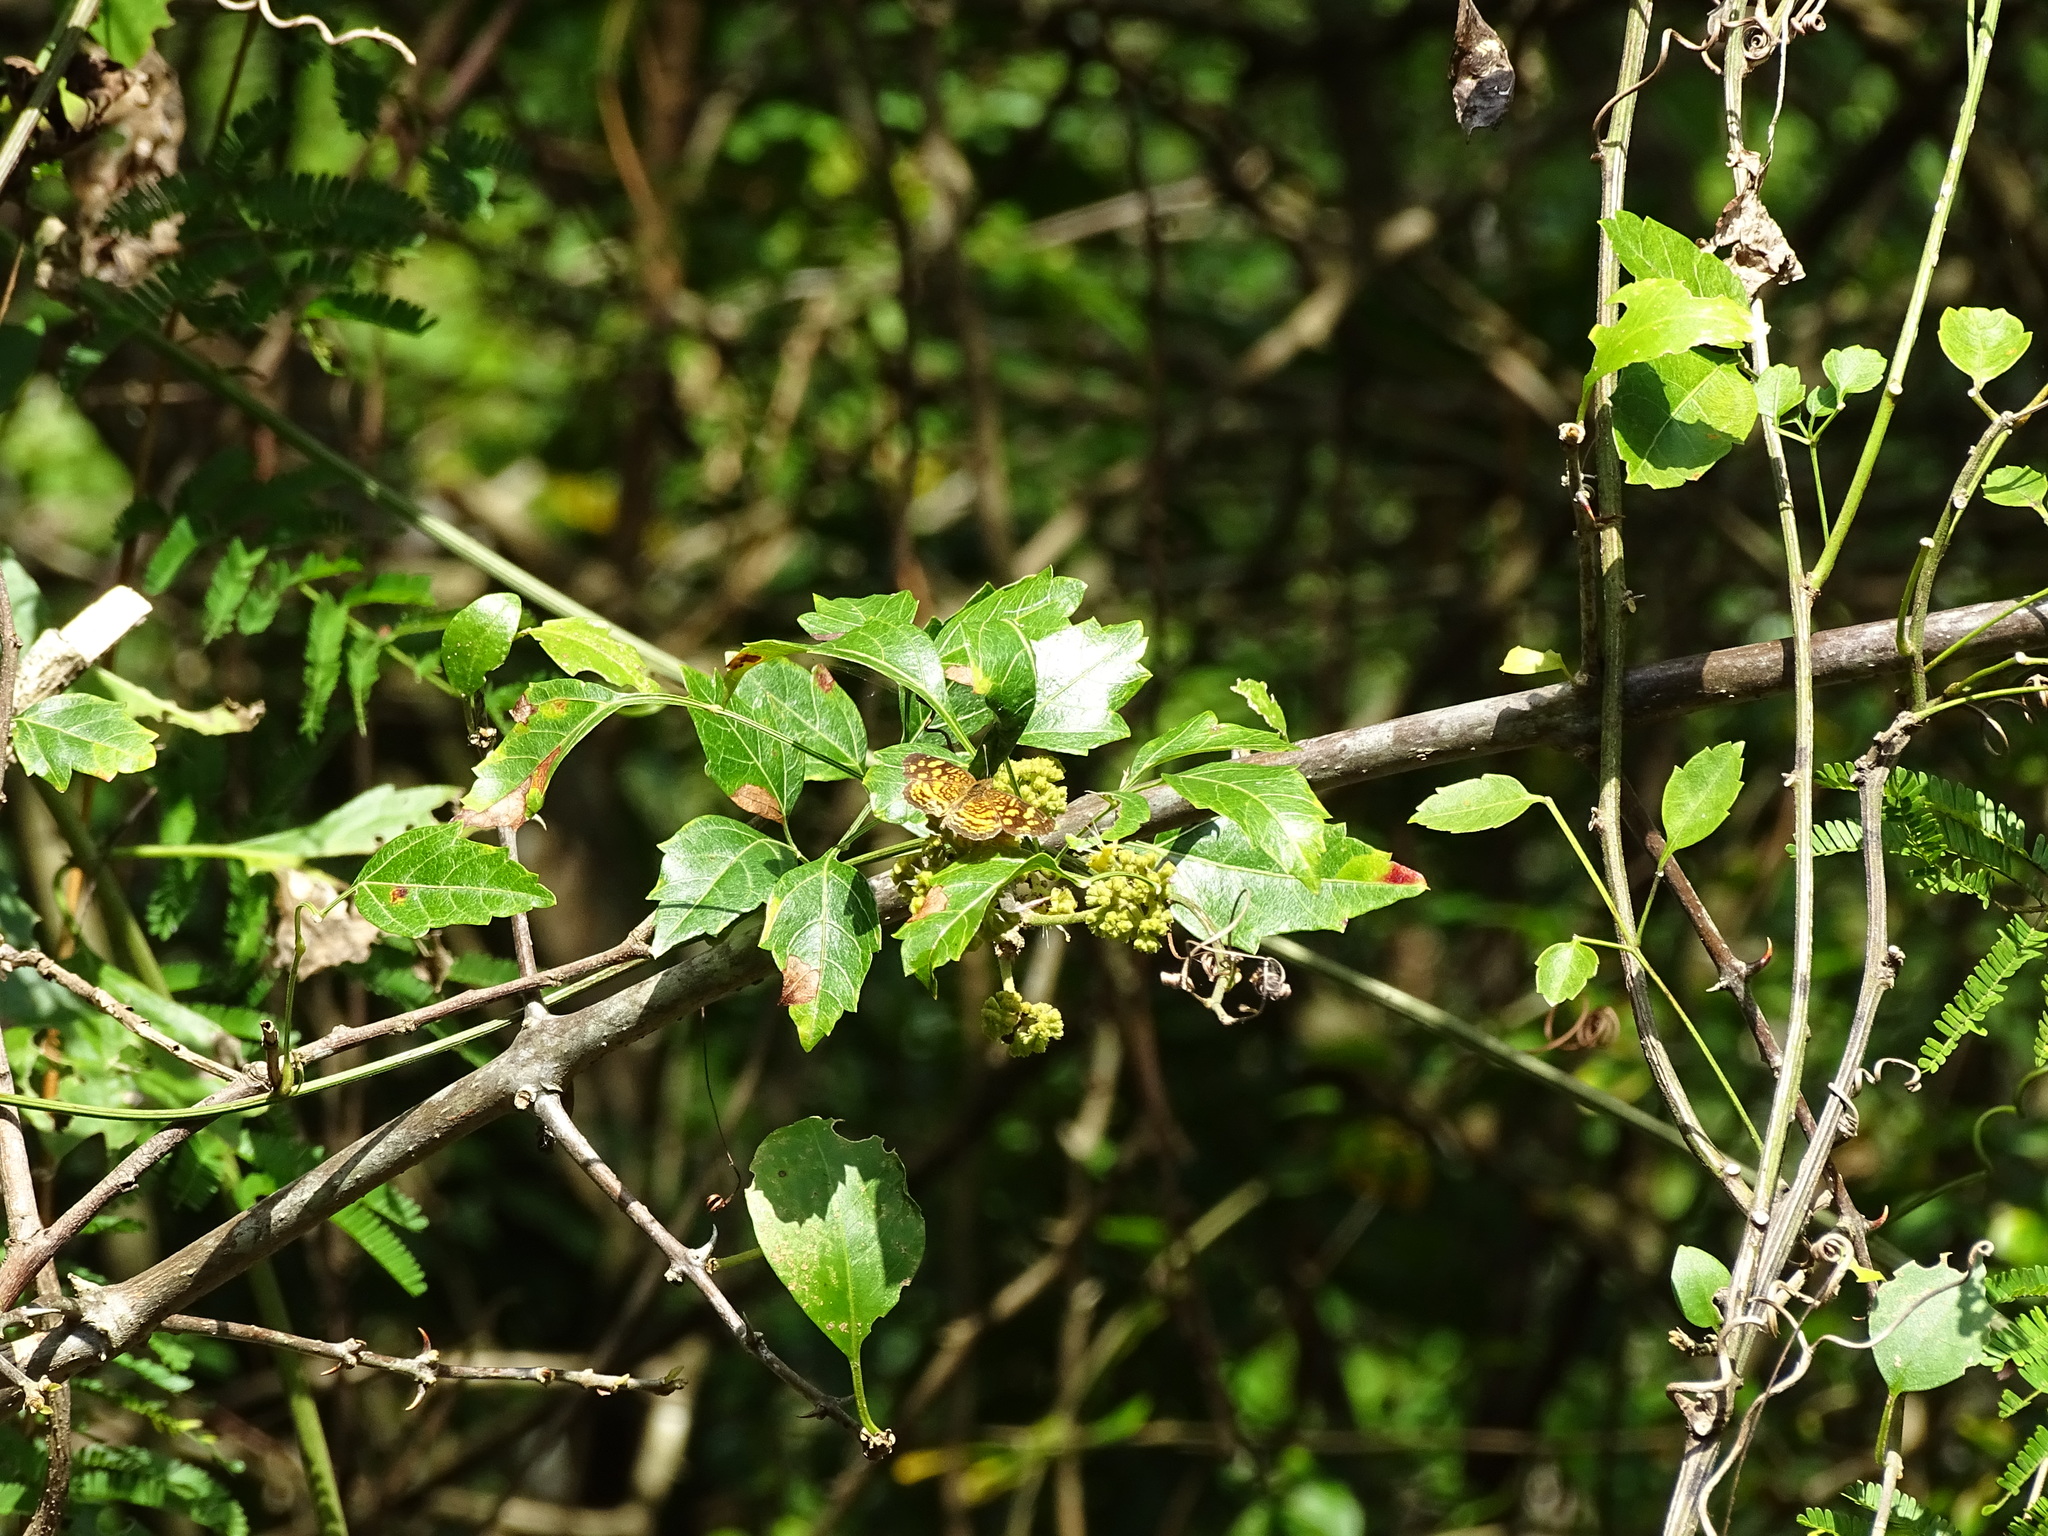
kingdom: Animalia
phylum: Arthropoda
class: Insecta
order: Lepidoptera
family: Nymphalidae
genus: Anthanassa
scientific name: Anthanassa frisia
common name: Cuban crescent
